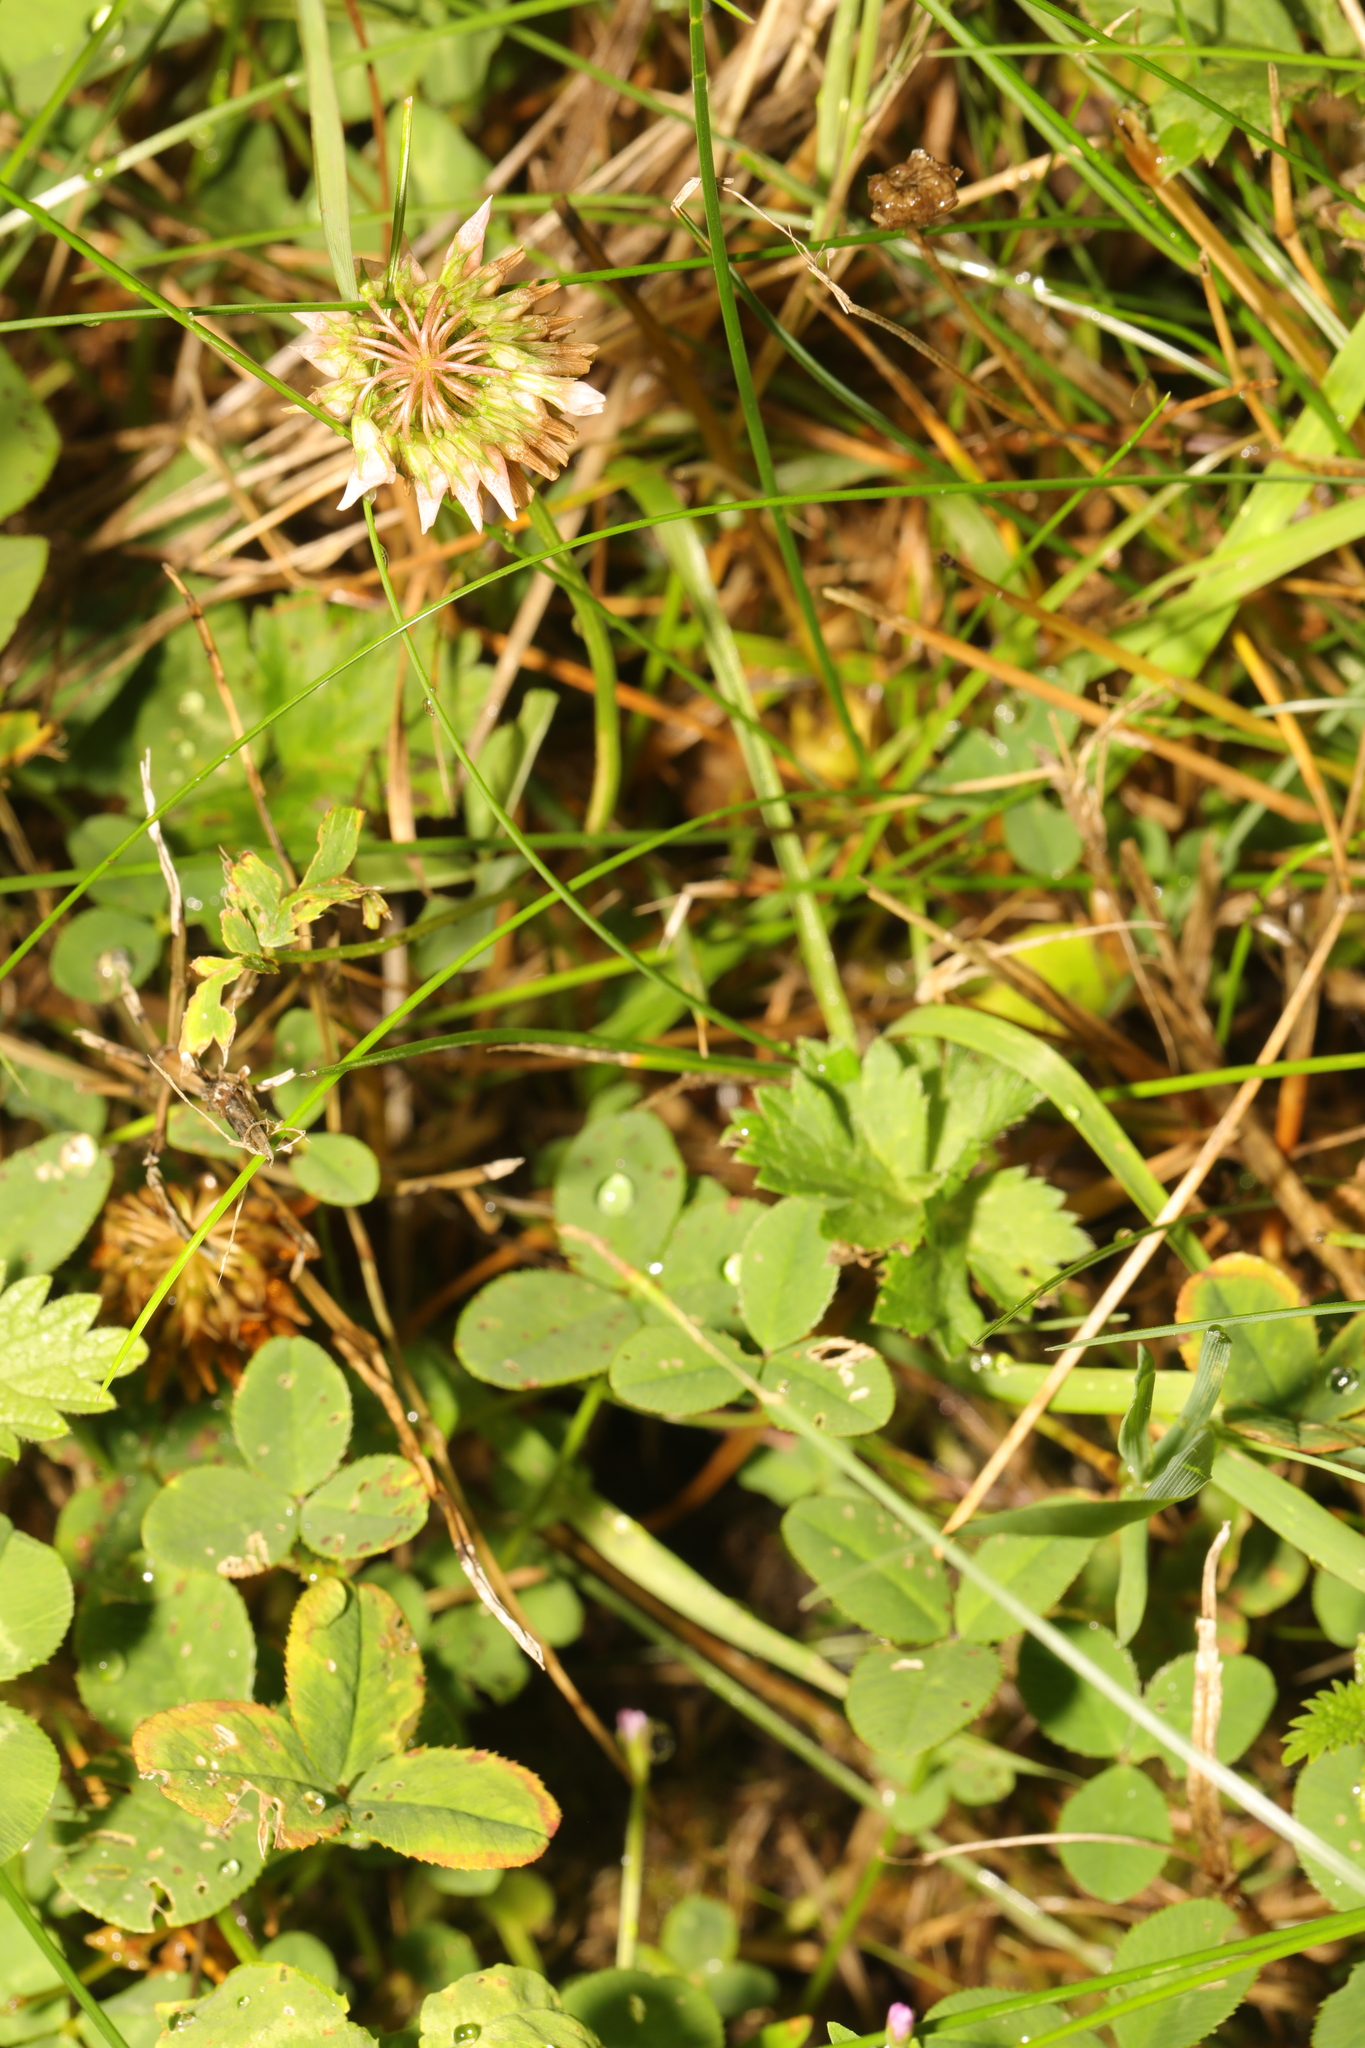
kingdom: Plantae
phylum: Tracheophyta
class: Magnoliopsida
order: Fabales
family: Fabaceae
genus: Trifolium
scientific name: Trifolium repens
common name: White clover
